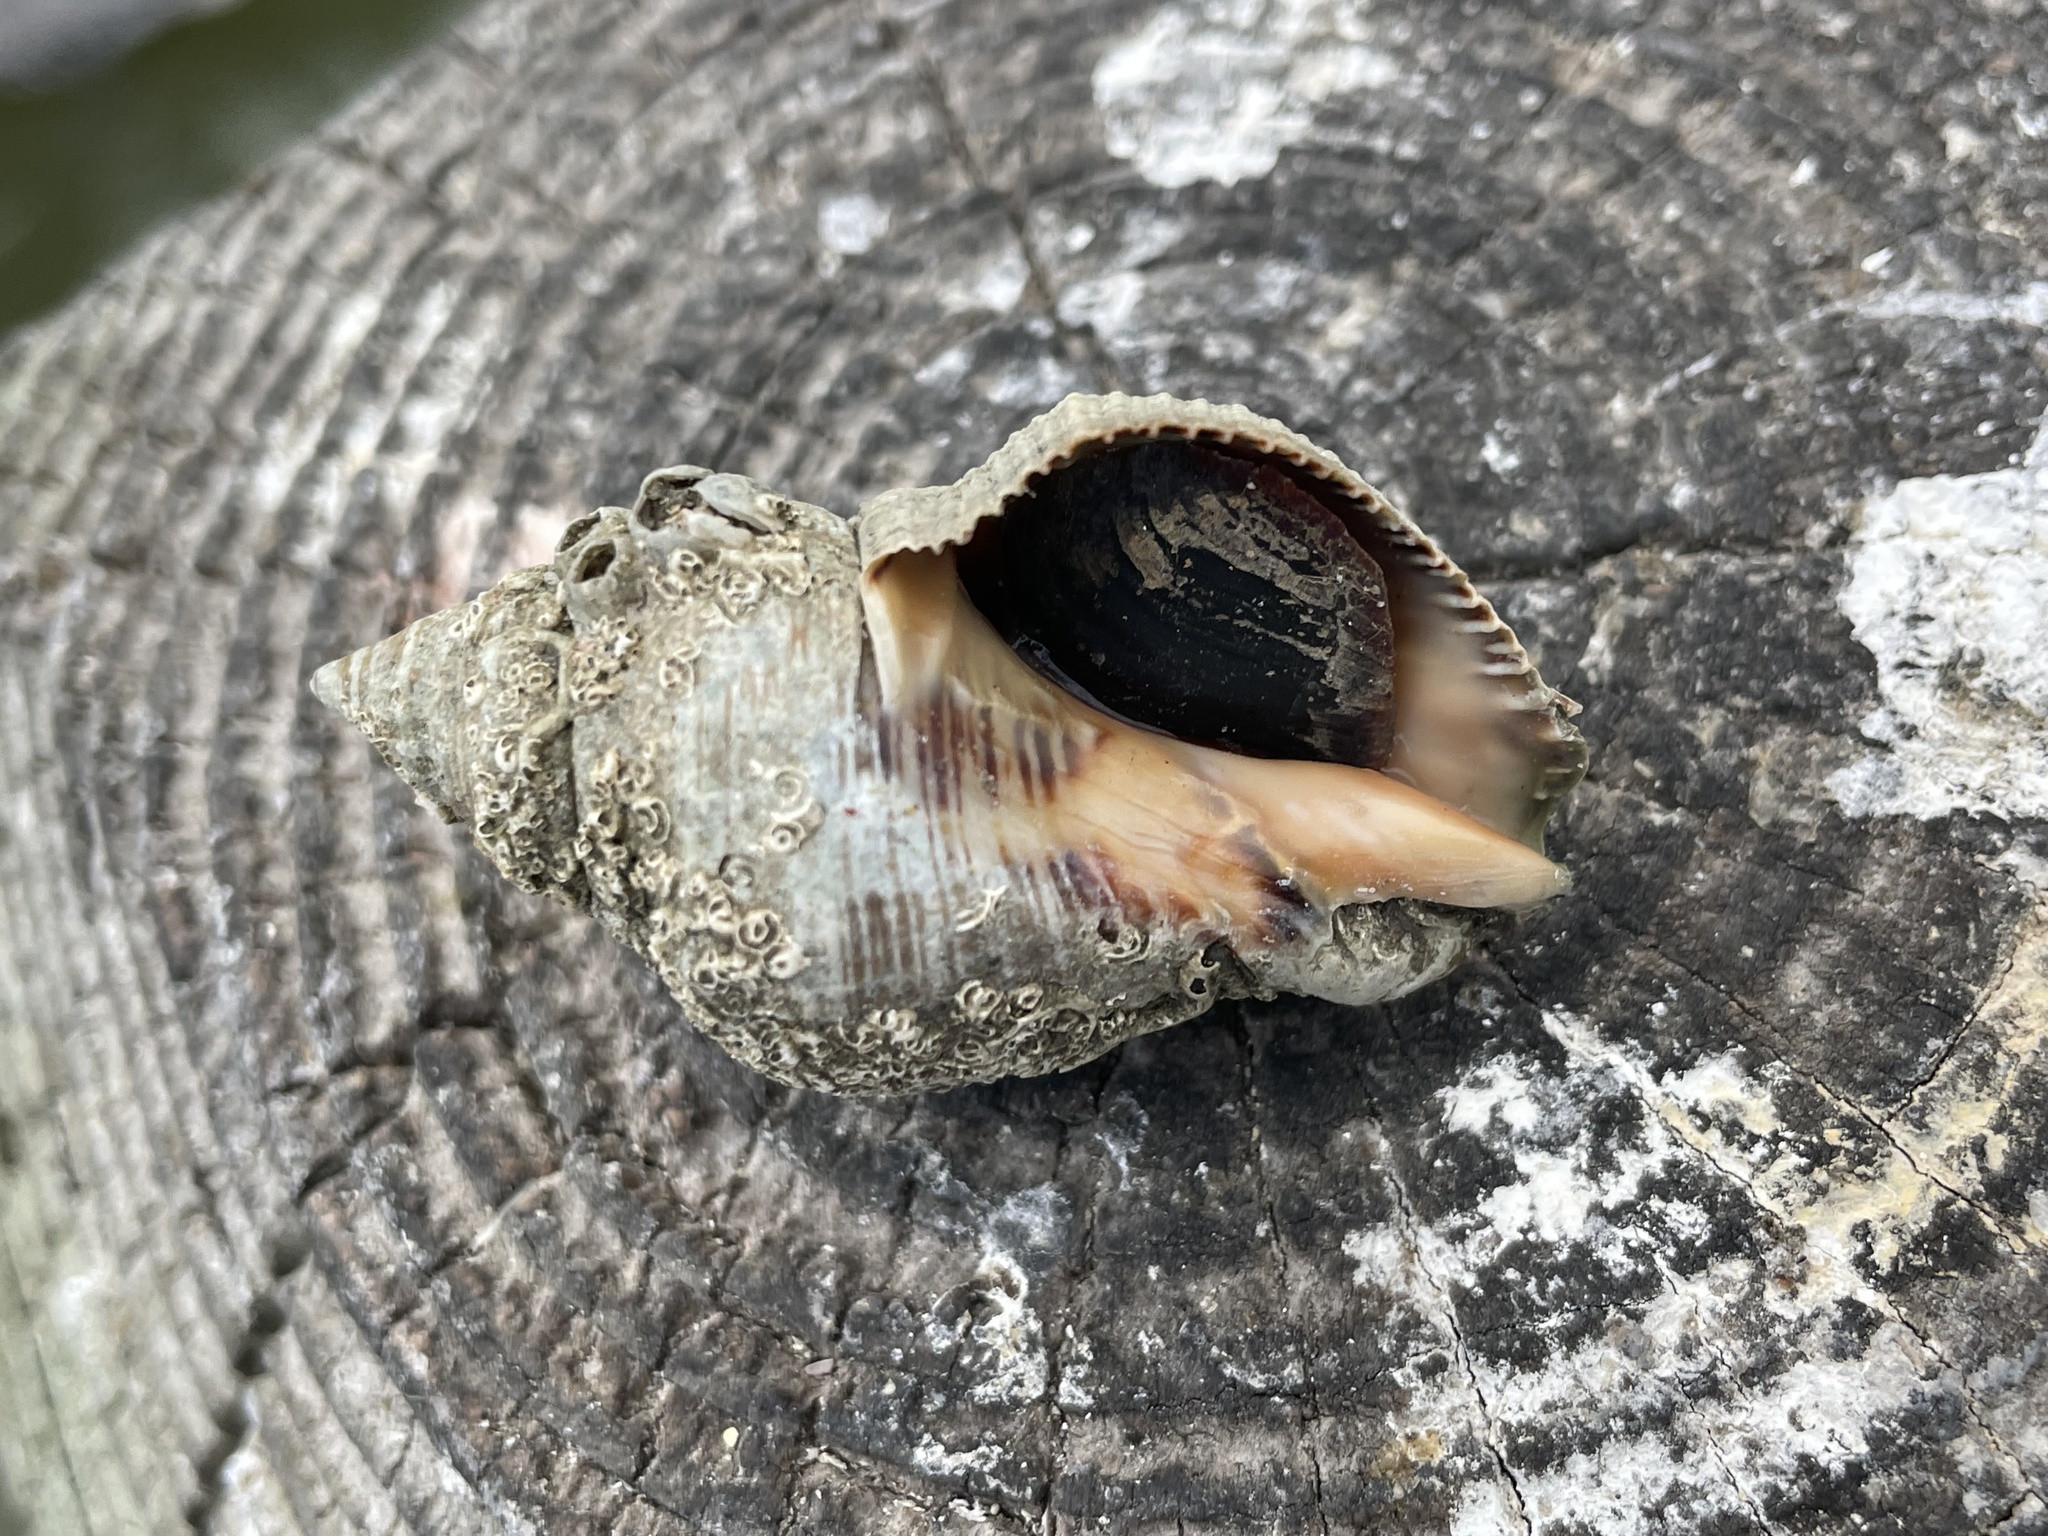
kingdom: Animalia
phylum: Mollusca
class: Gastropoda
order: Neogastropoda
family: Muricidae
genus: Stramonita
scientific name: Stramonita canaliculata
